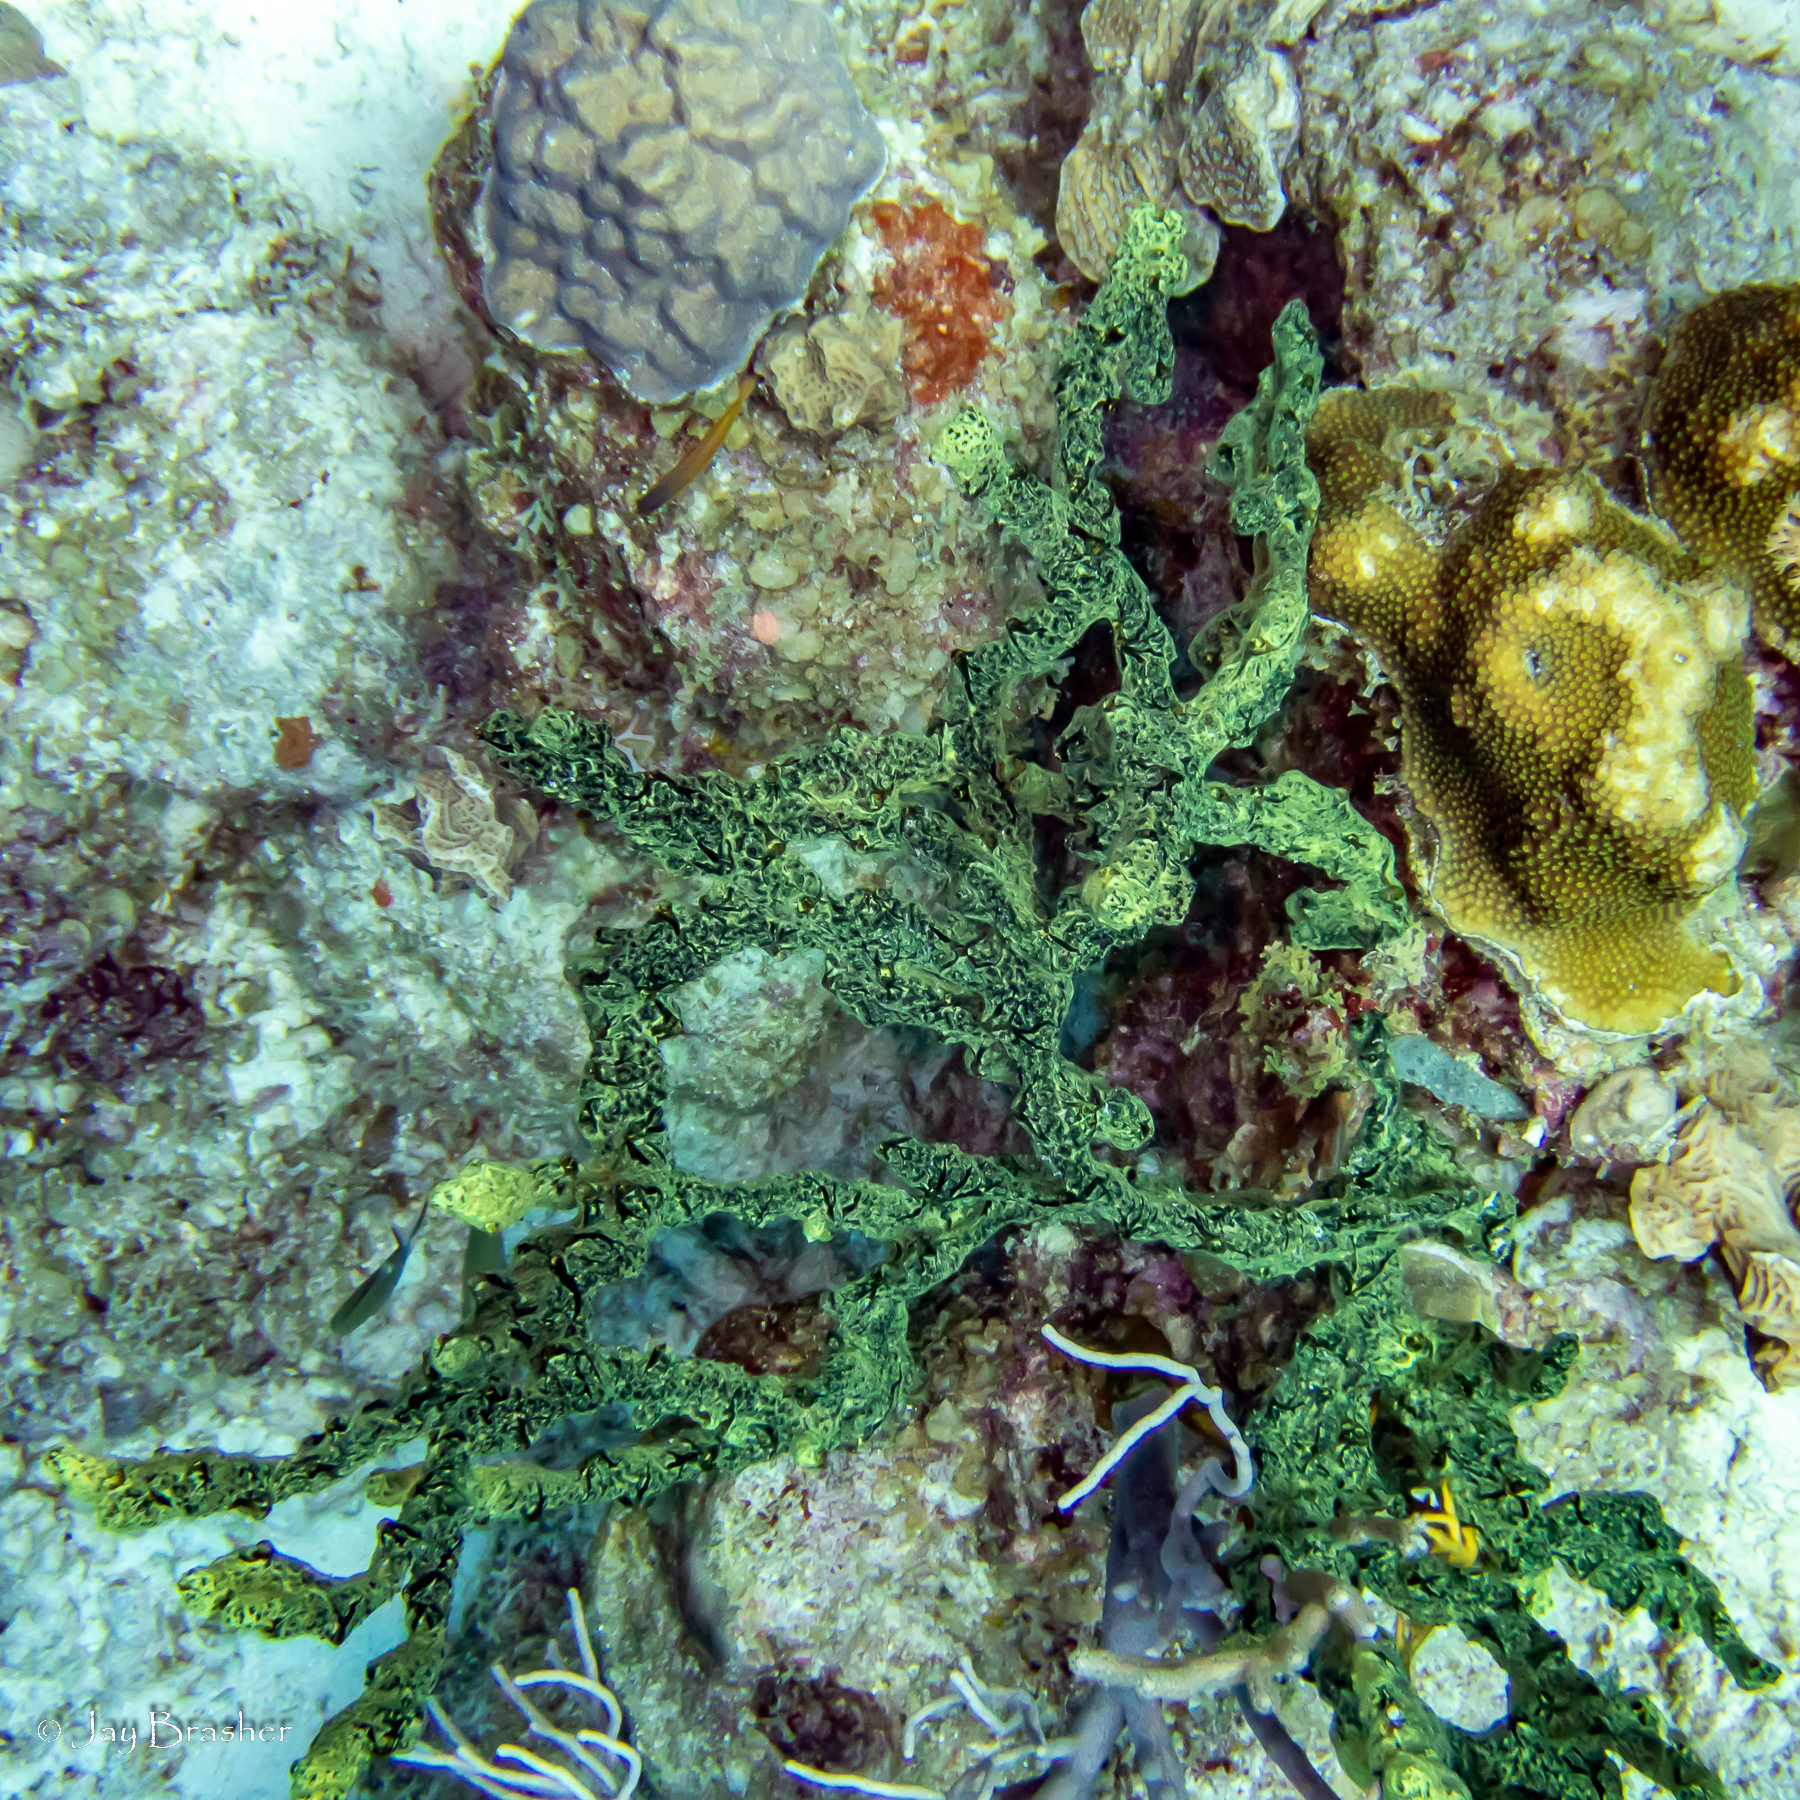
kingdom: Animalia
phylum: Porifera
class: Demospongiae
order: Poecilosclerida
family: Iotrochotidae
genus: Iotrochota
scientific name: Iotrochota birotulata
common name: Purple bleeding sponge
